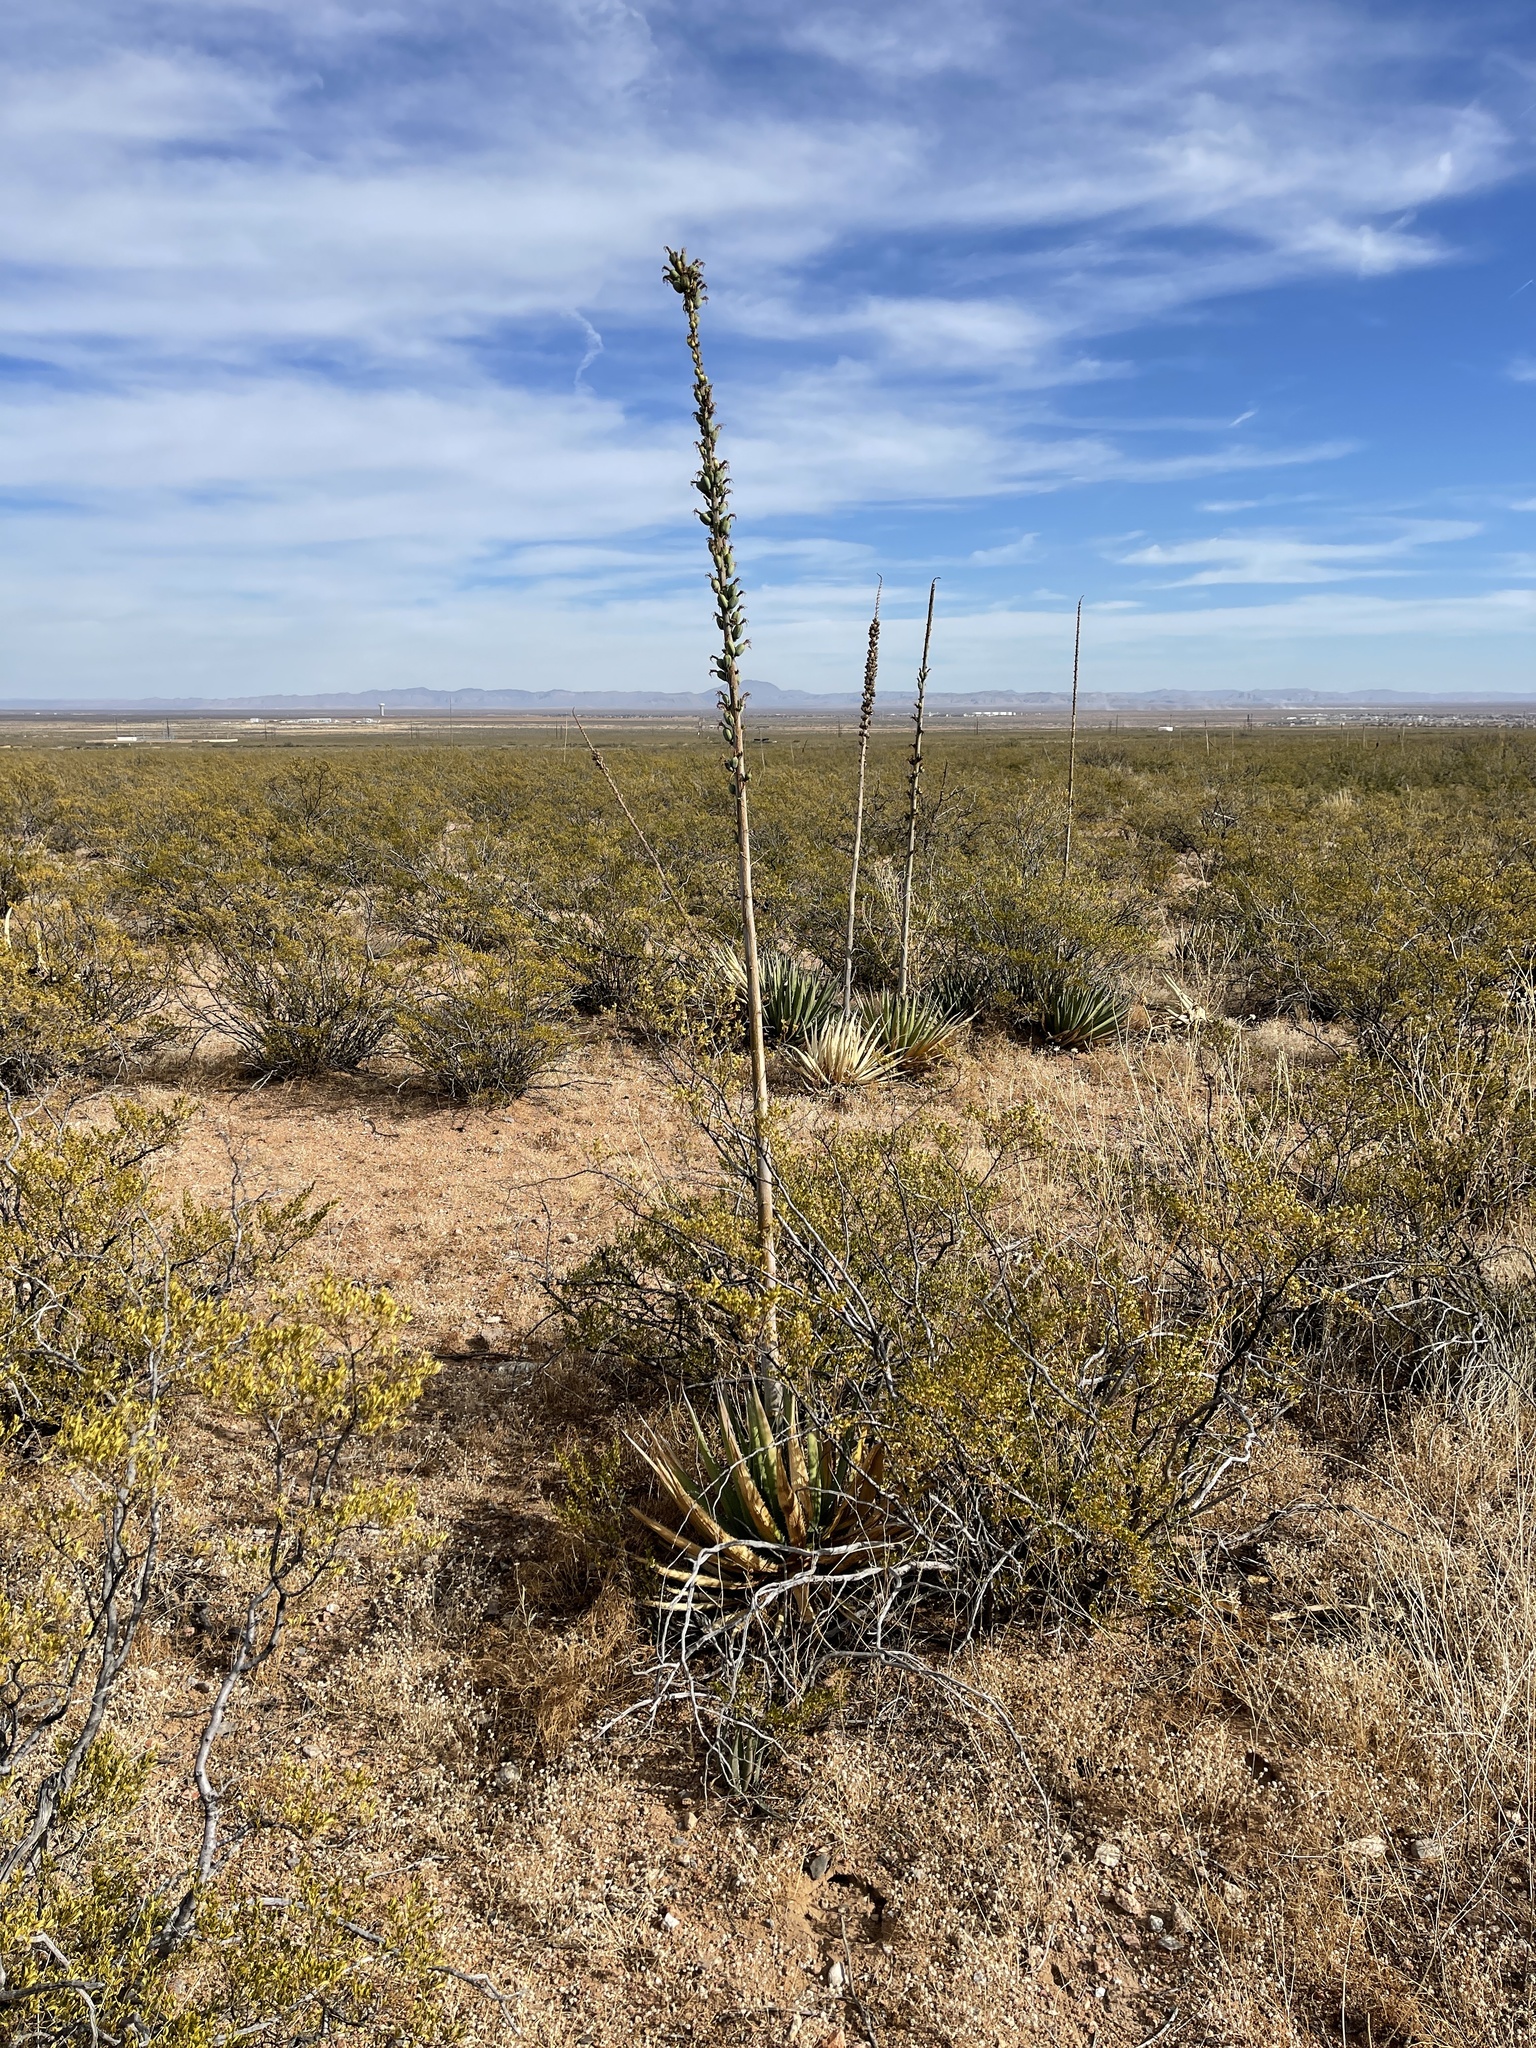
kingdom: Plantae
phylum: Tracheophyta
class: Liliopsida
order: Asparagales
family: Asparagaceae
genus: Agave
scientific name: Agave lechuguilla
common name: Lecheguilla agave
